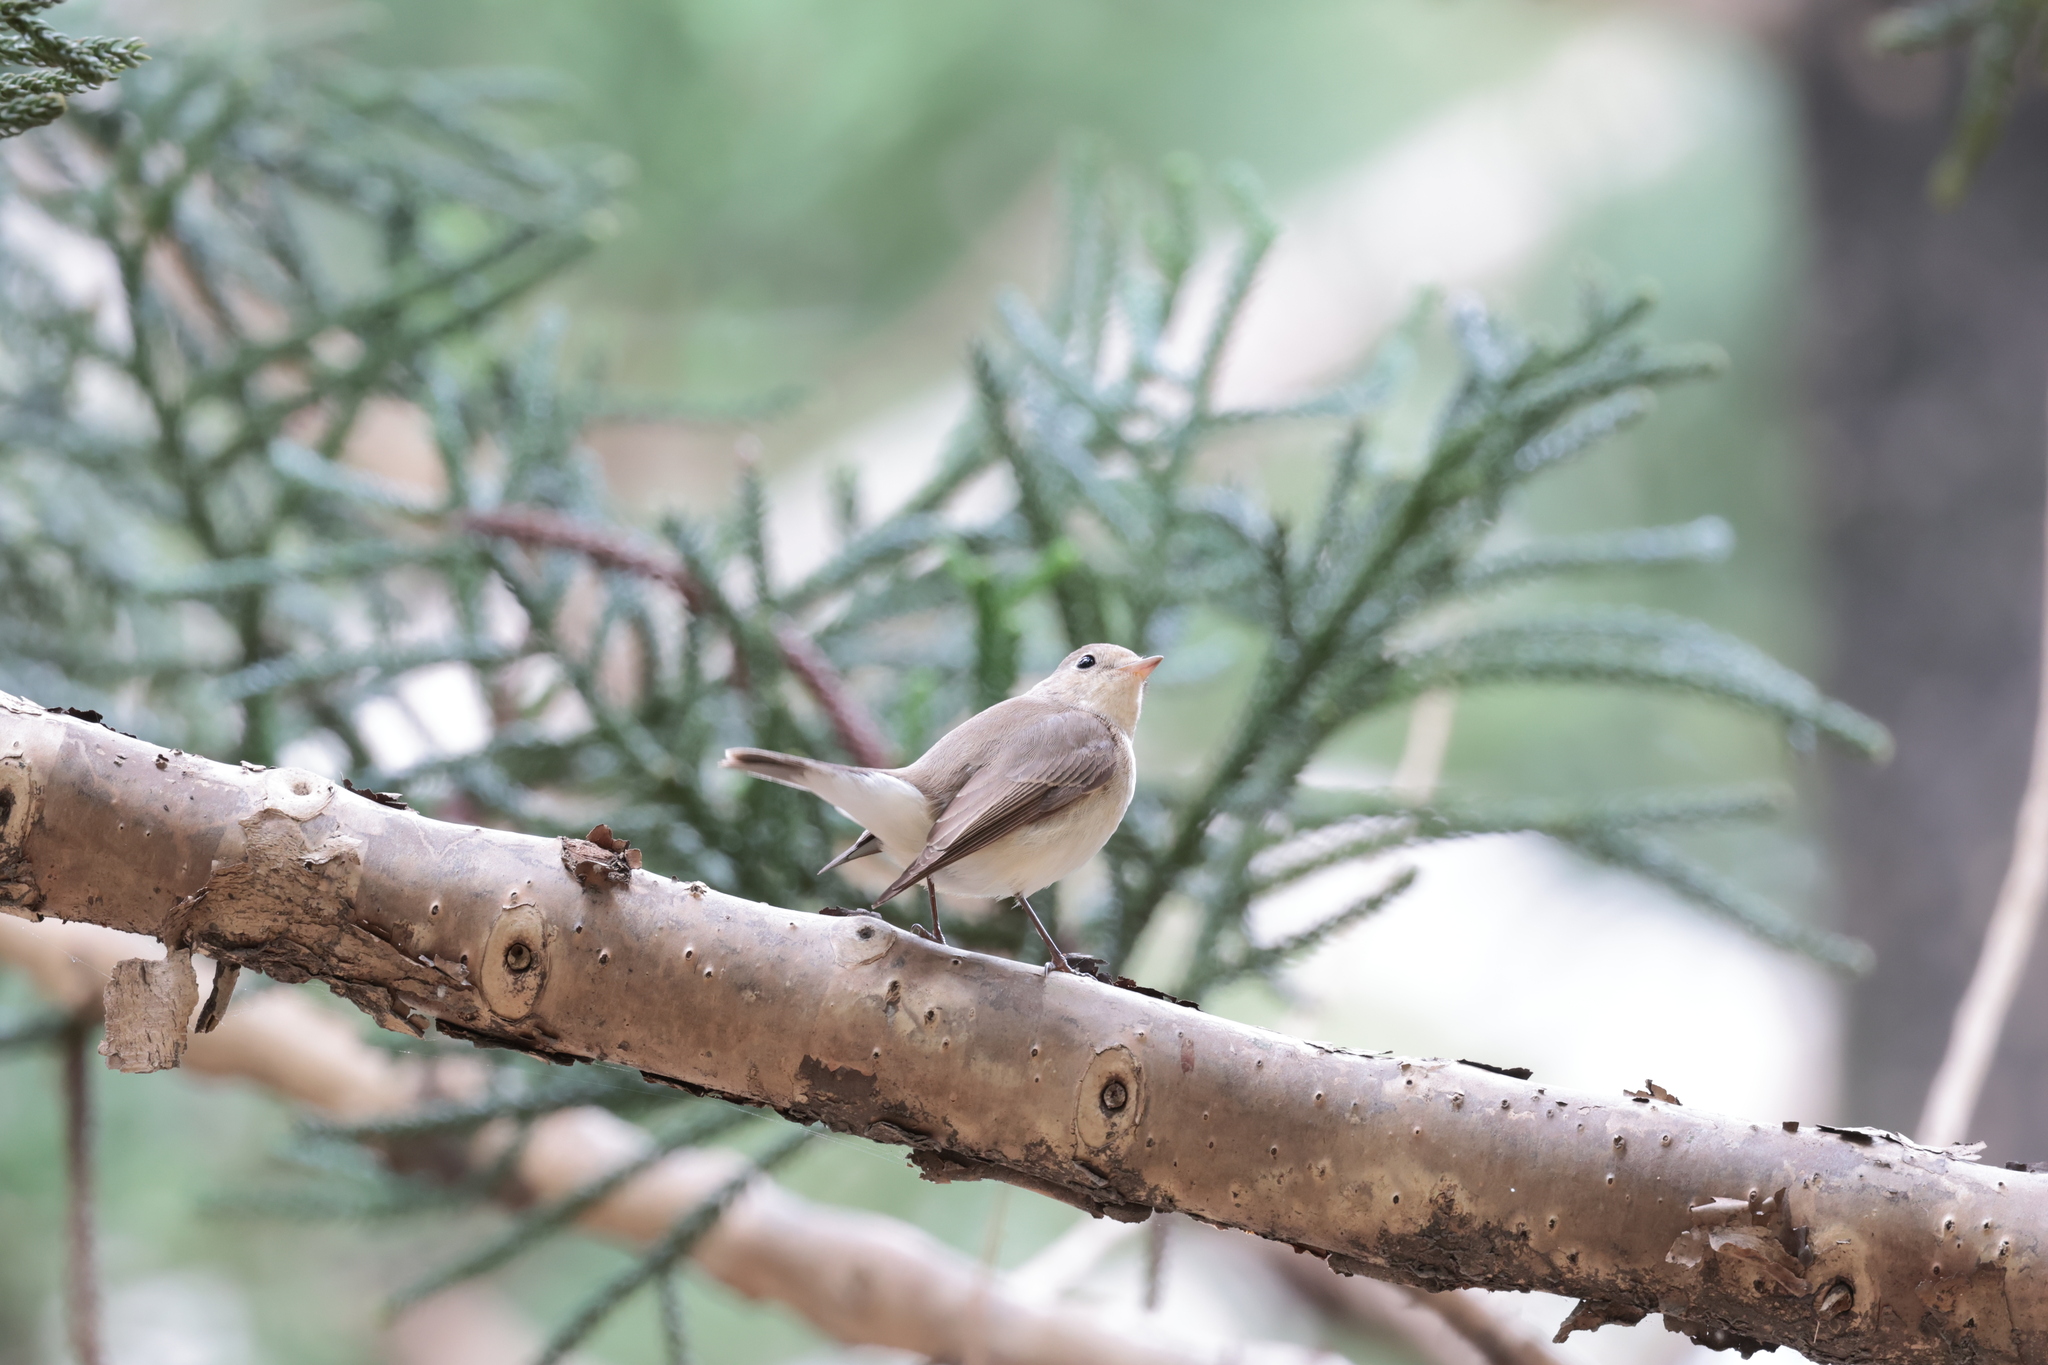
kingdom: Animalia
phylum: Chordata
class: Aves
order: Passeriformes
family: Muscicapidae
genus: Ficedula
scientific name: Ficedula parva
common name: Red-breasted flycatcher
